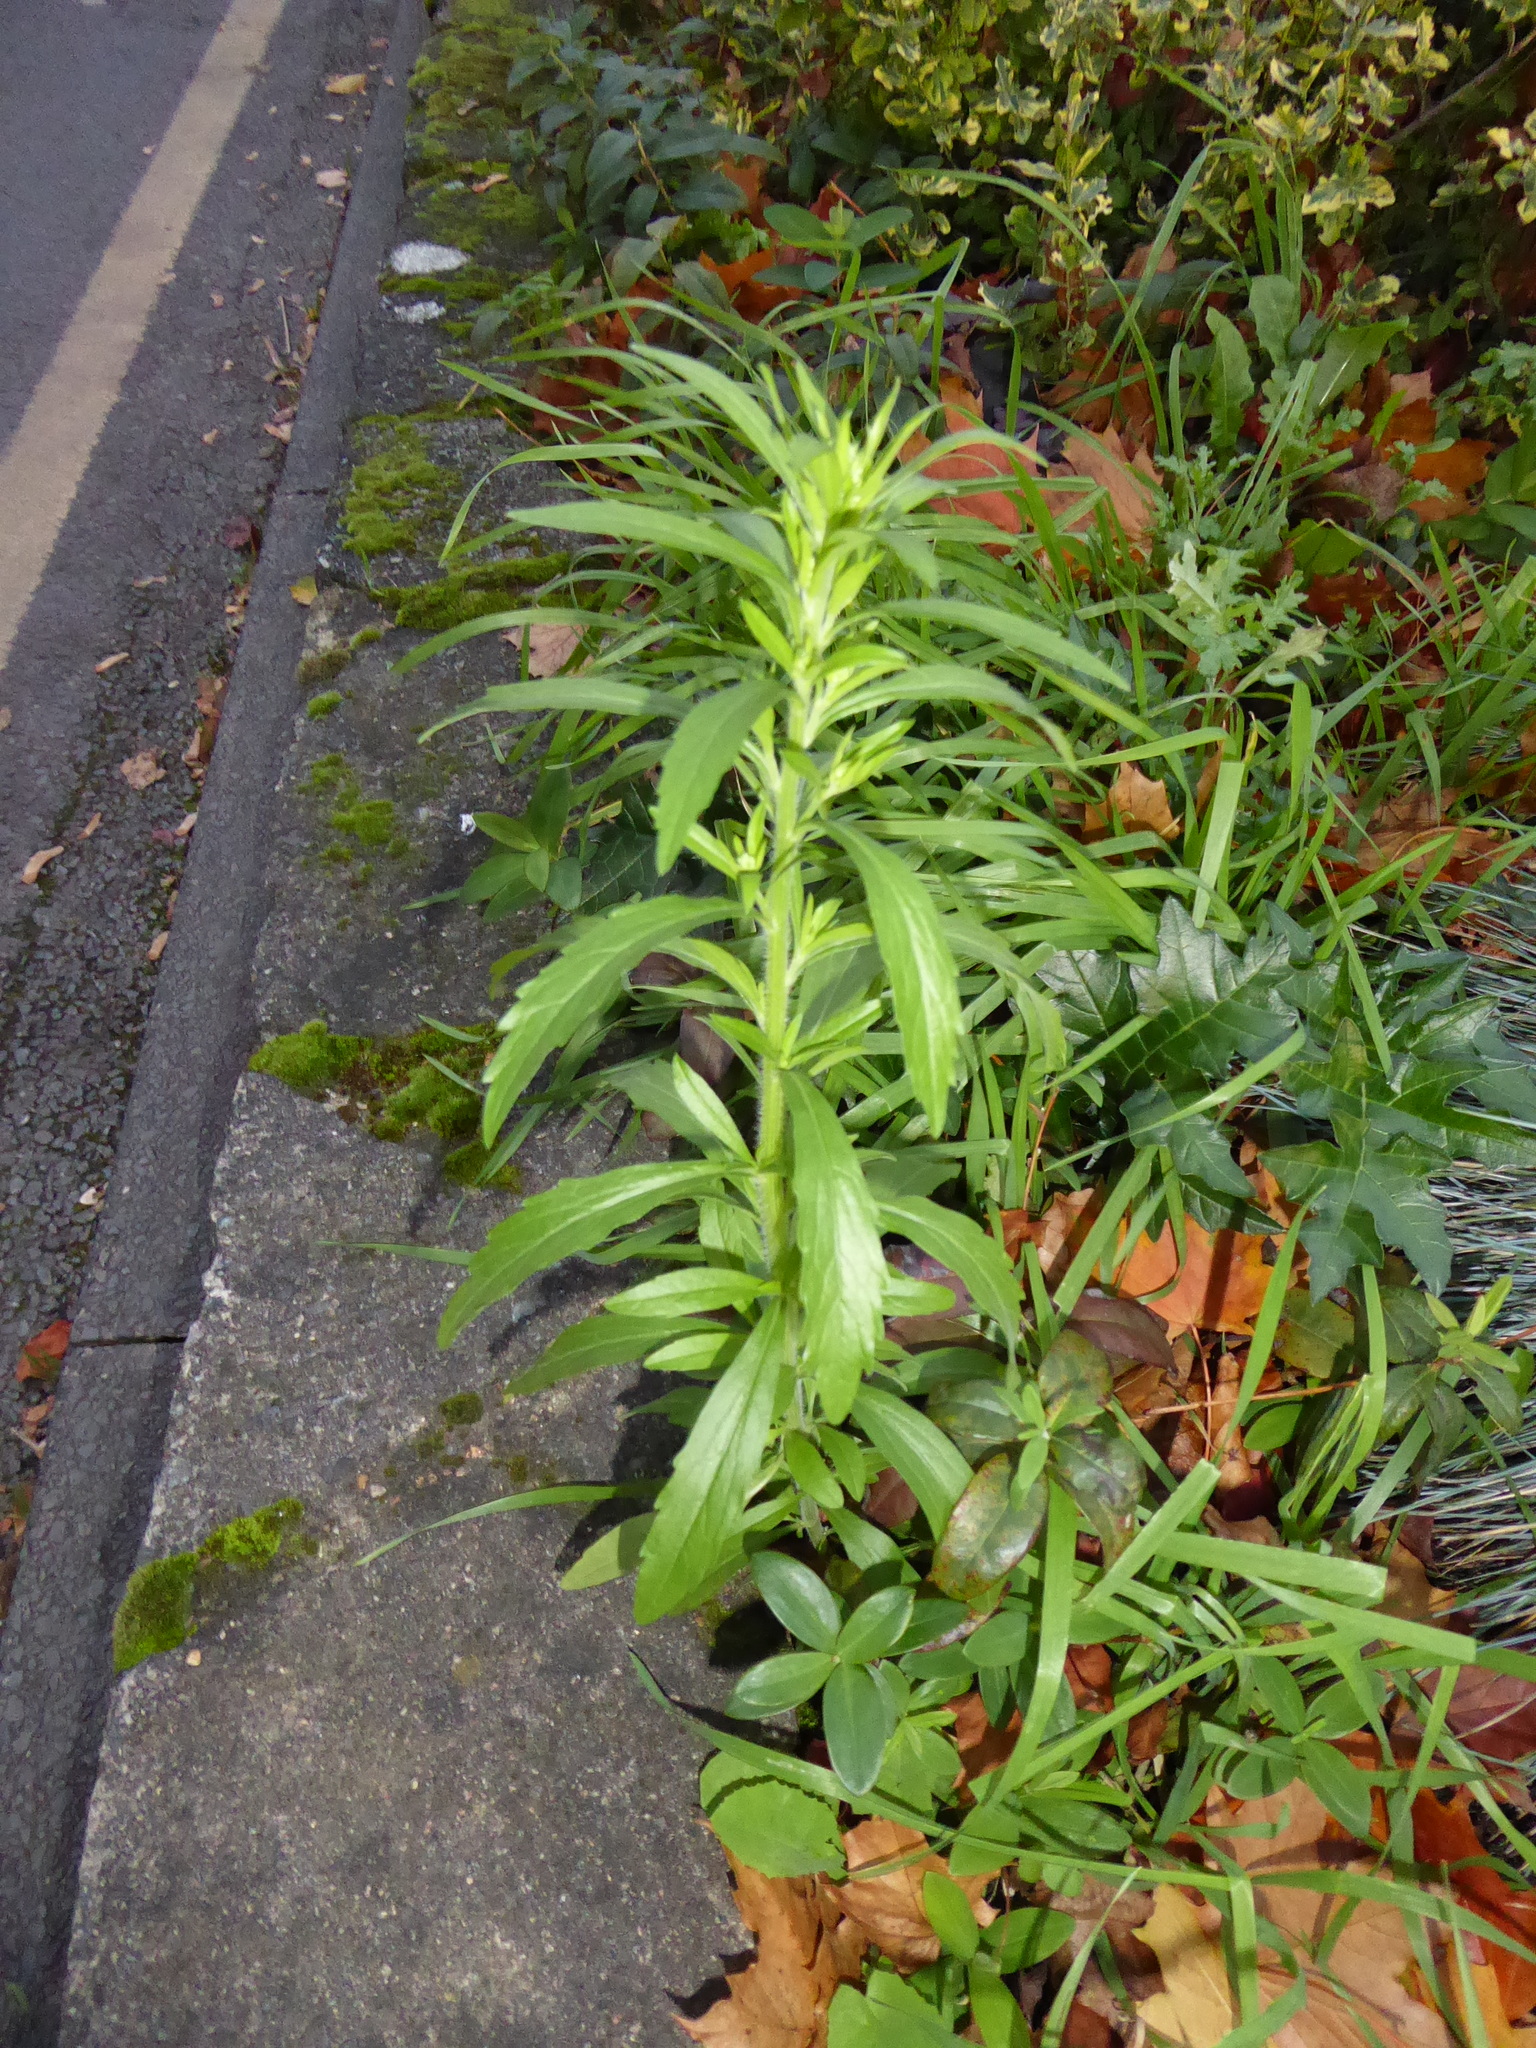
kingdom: Plantae
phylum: Tracheophyta
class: Magnoliopsida
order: Asterales
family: Asteraceae
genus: Erigeron
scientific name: Erigeron sumatrensis
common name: Daisy
